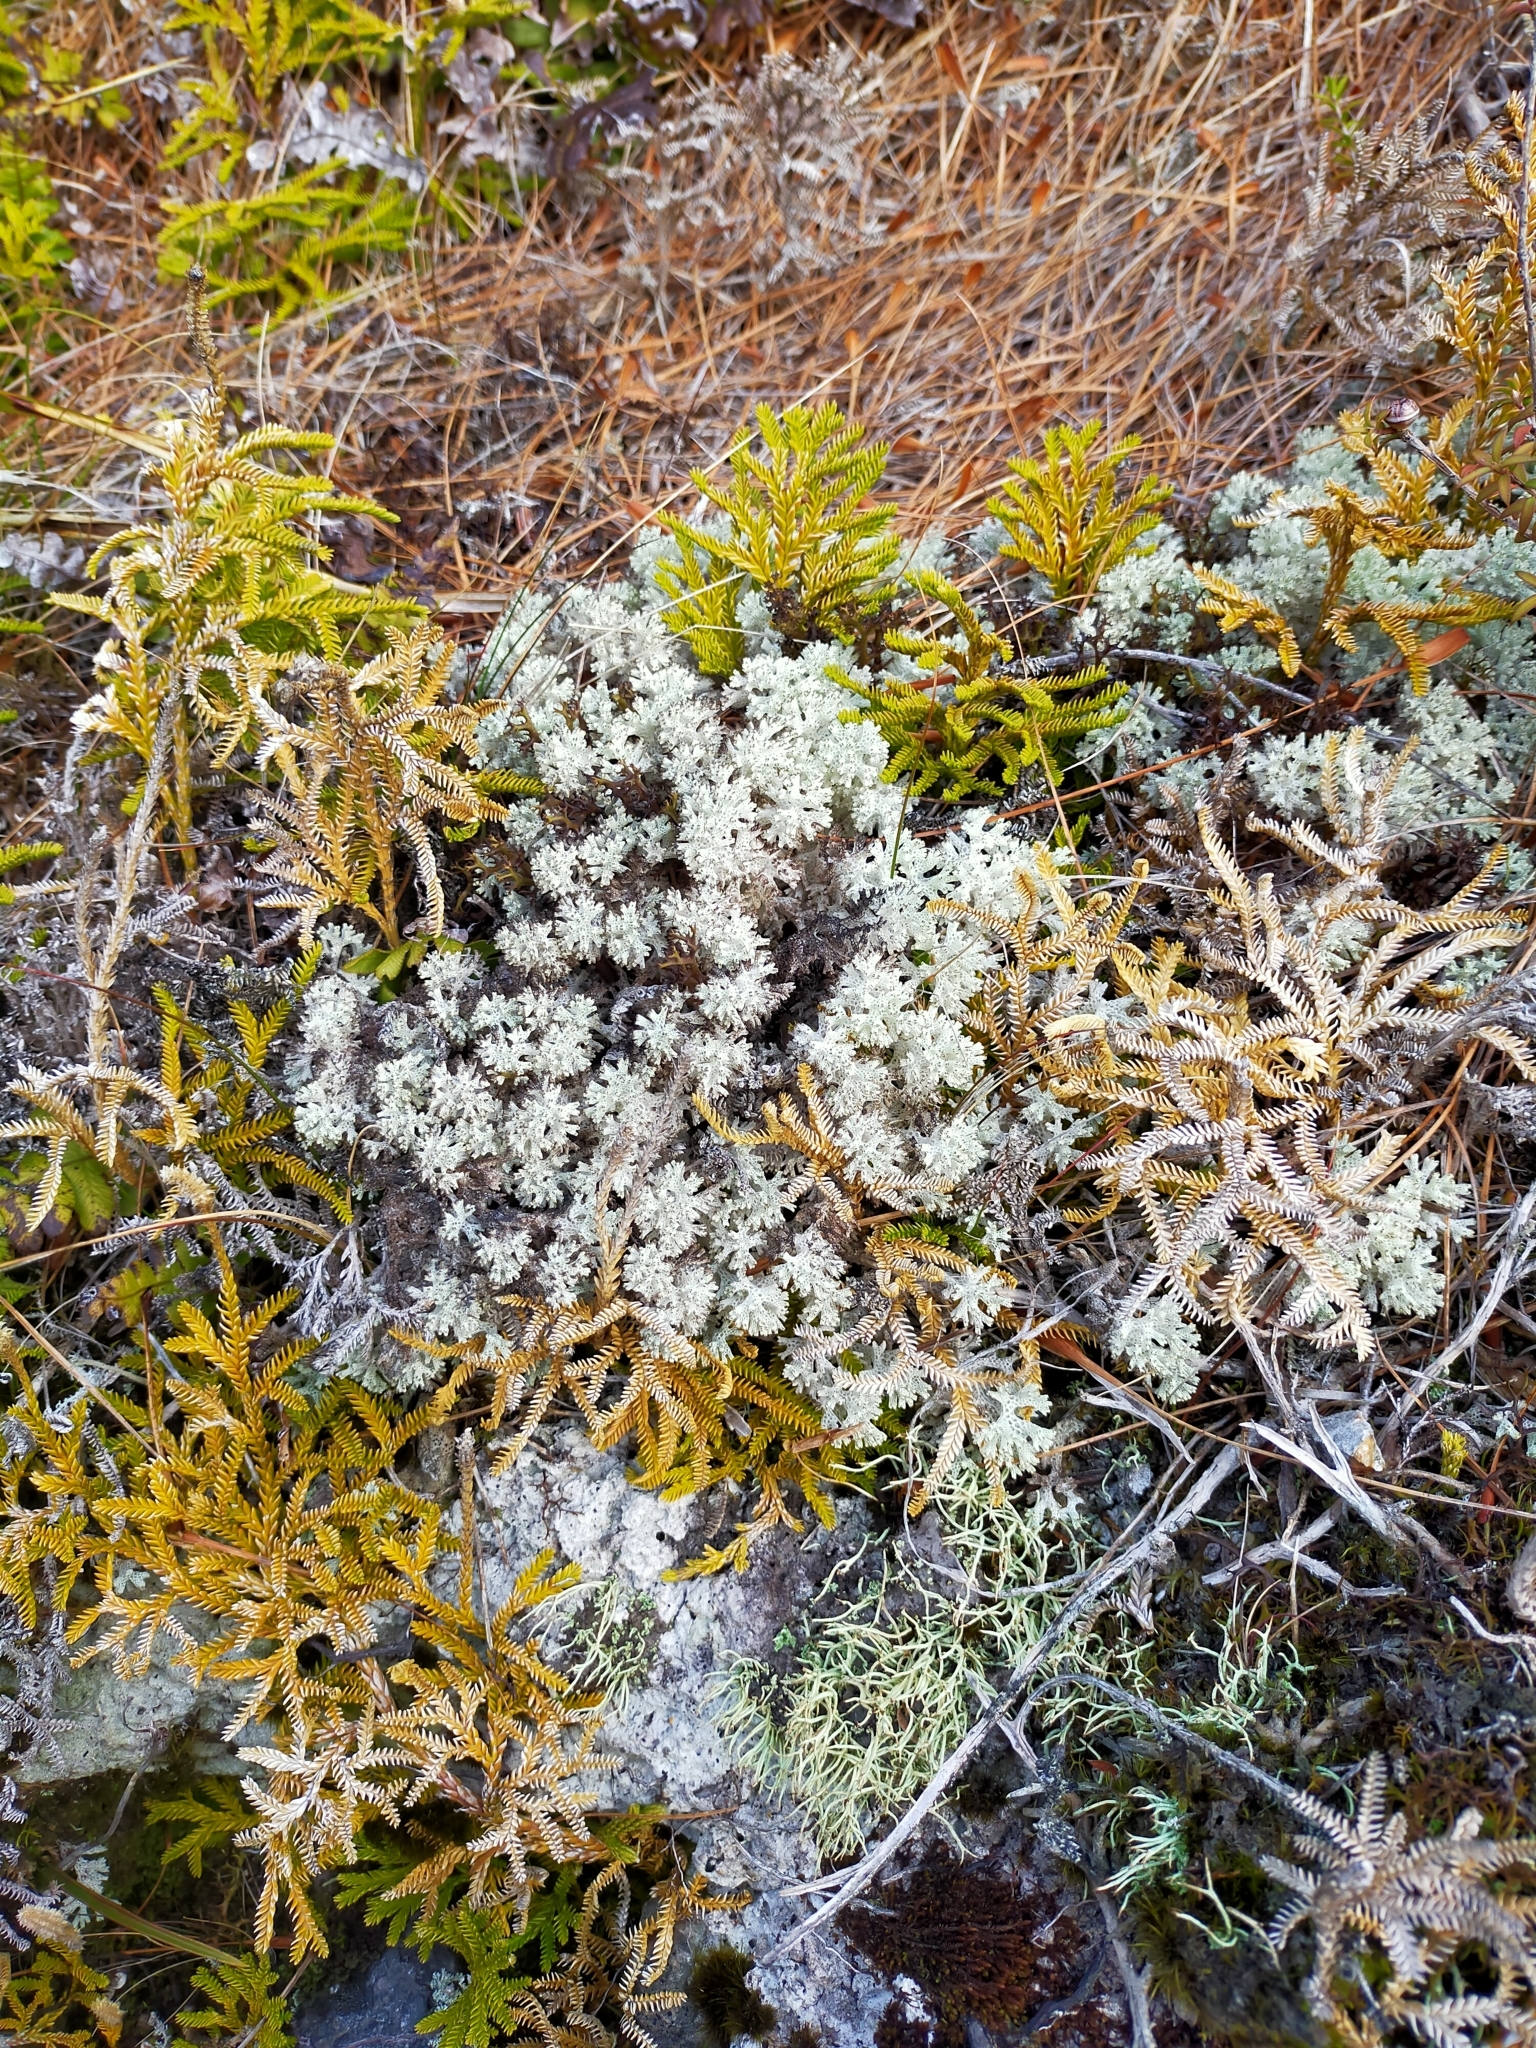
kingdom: Fungi
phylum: Ascomycota
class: Lecanoromycetes
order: Lecanorales
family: Cladoniaceae
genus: Pulchrocladia
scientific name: Pulchrocladia retipora
